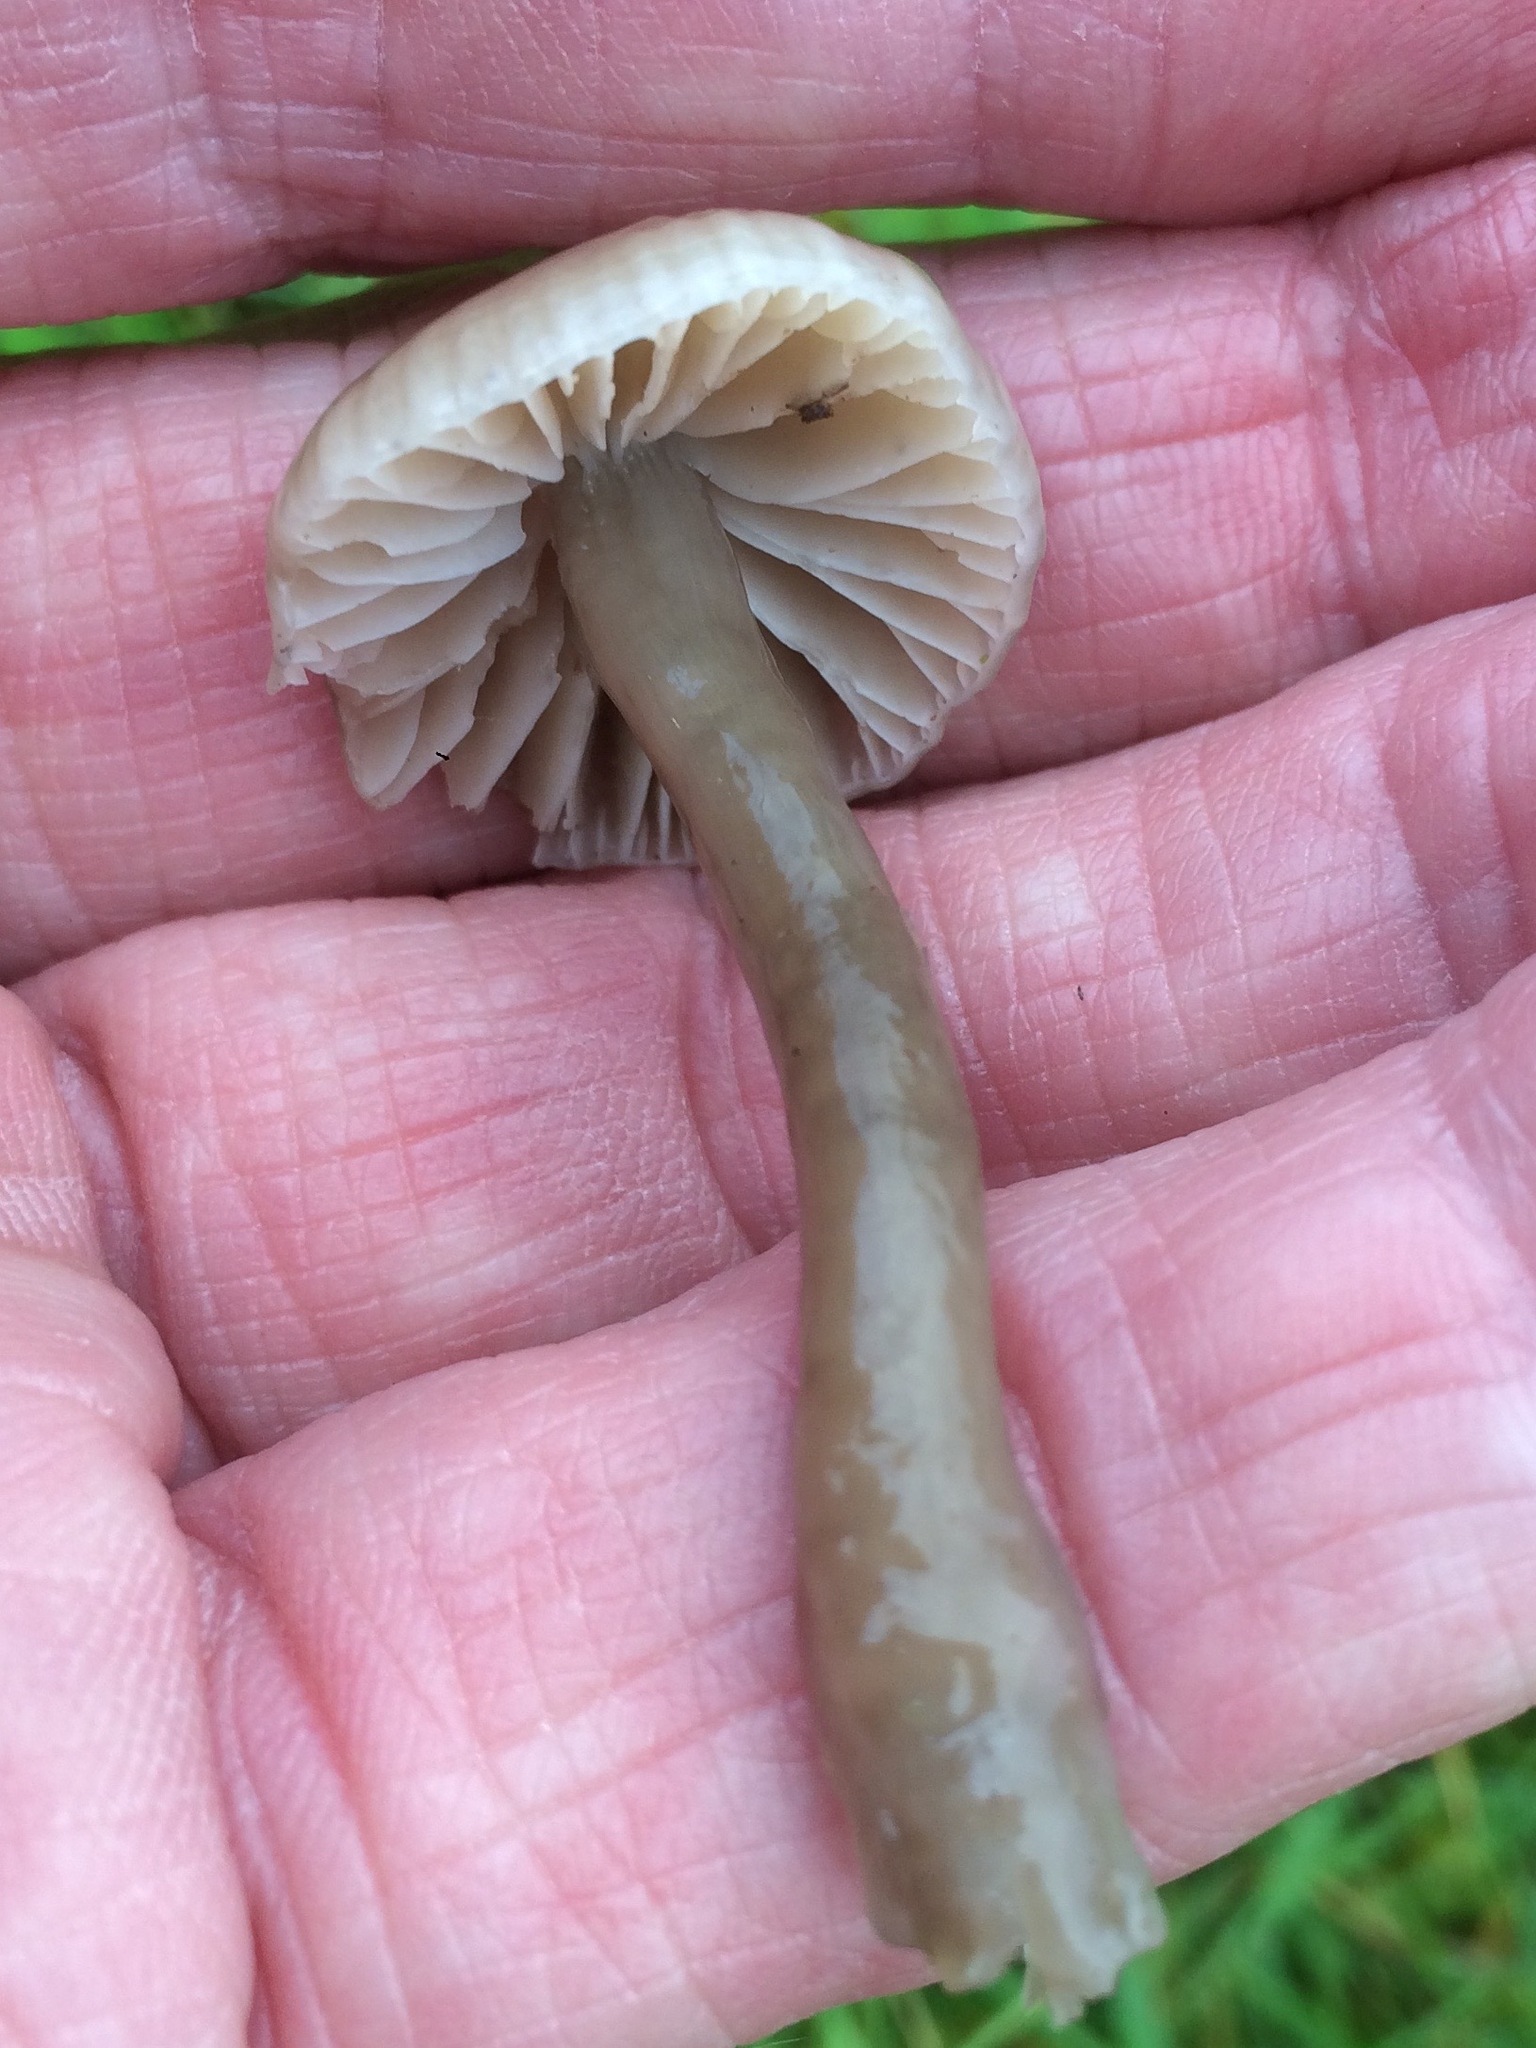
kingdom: Fungi
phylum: Basidiomycota
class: Agaricomycetes
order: Agaricales
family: Hygrophoraceae
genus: Gliophorus
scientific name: Gliophorus irrigatus
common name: Slimy waxcap
